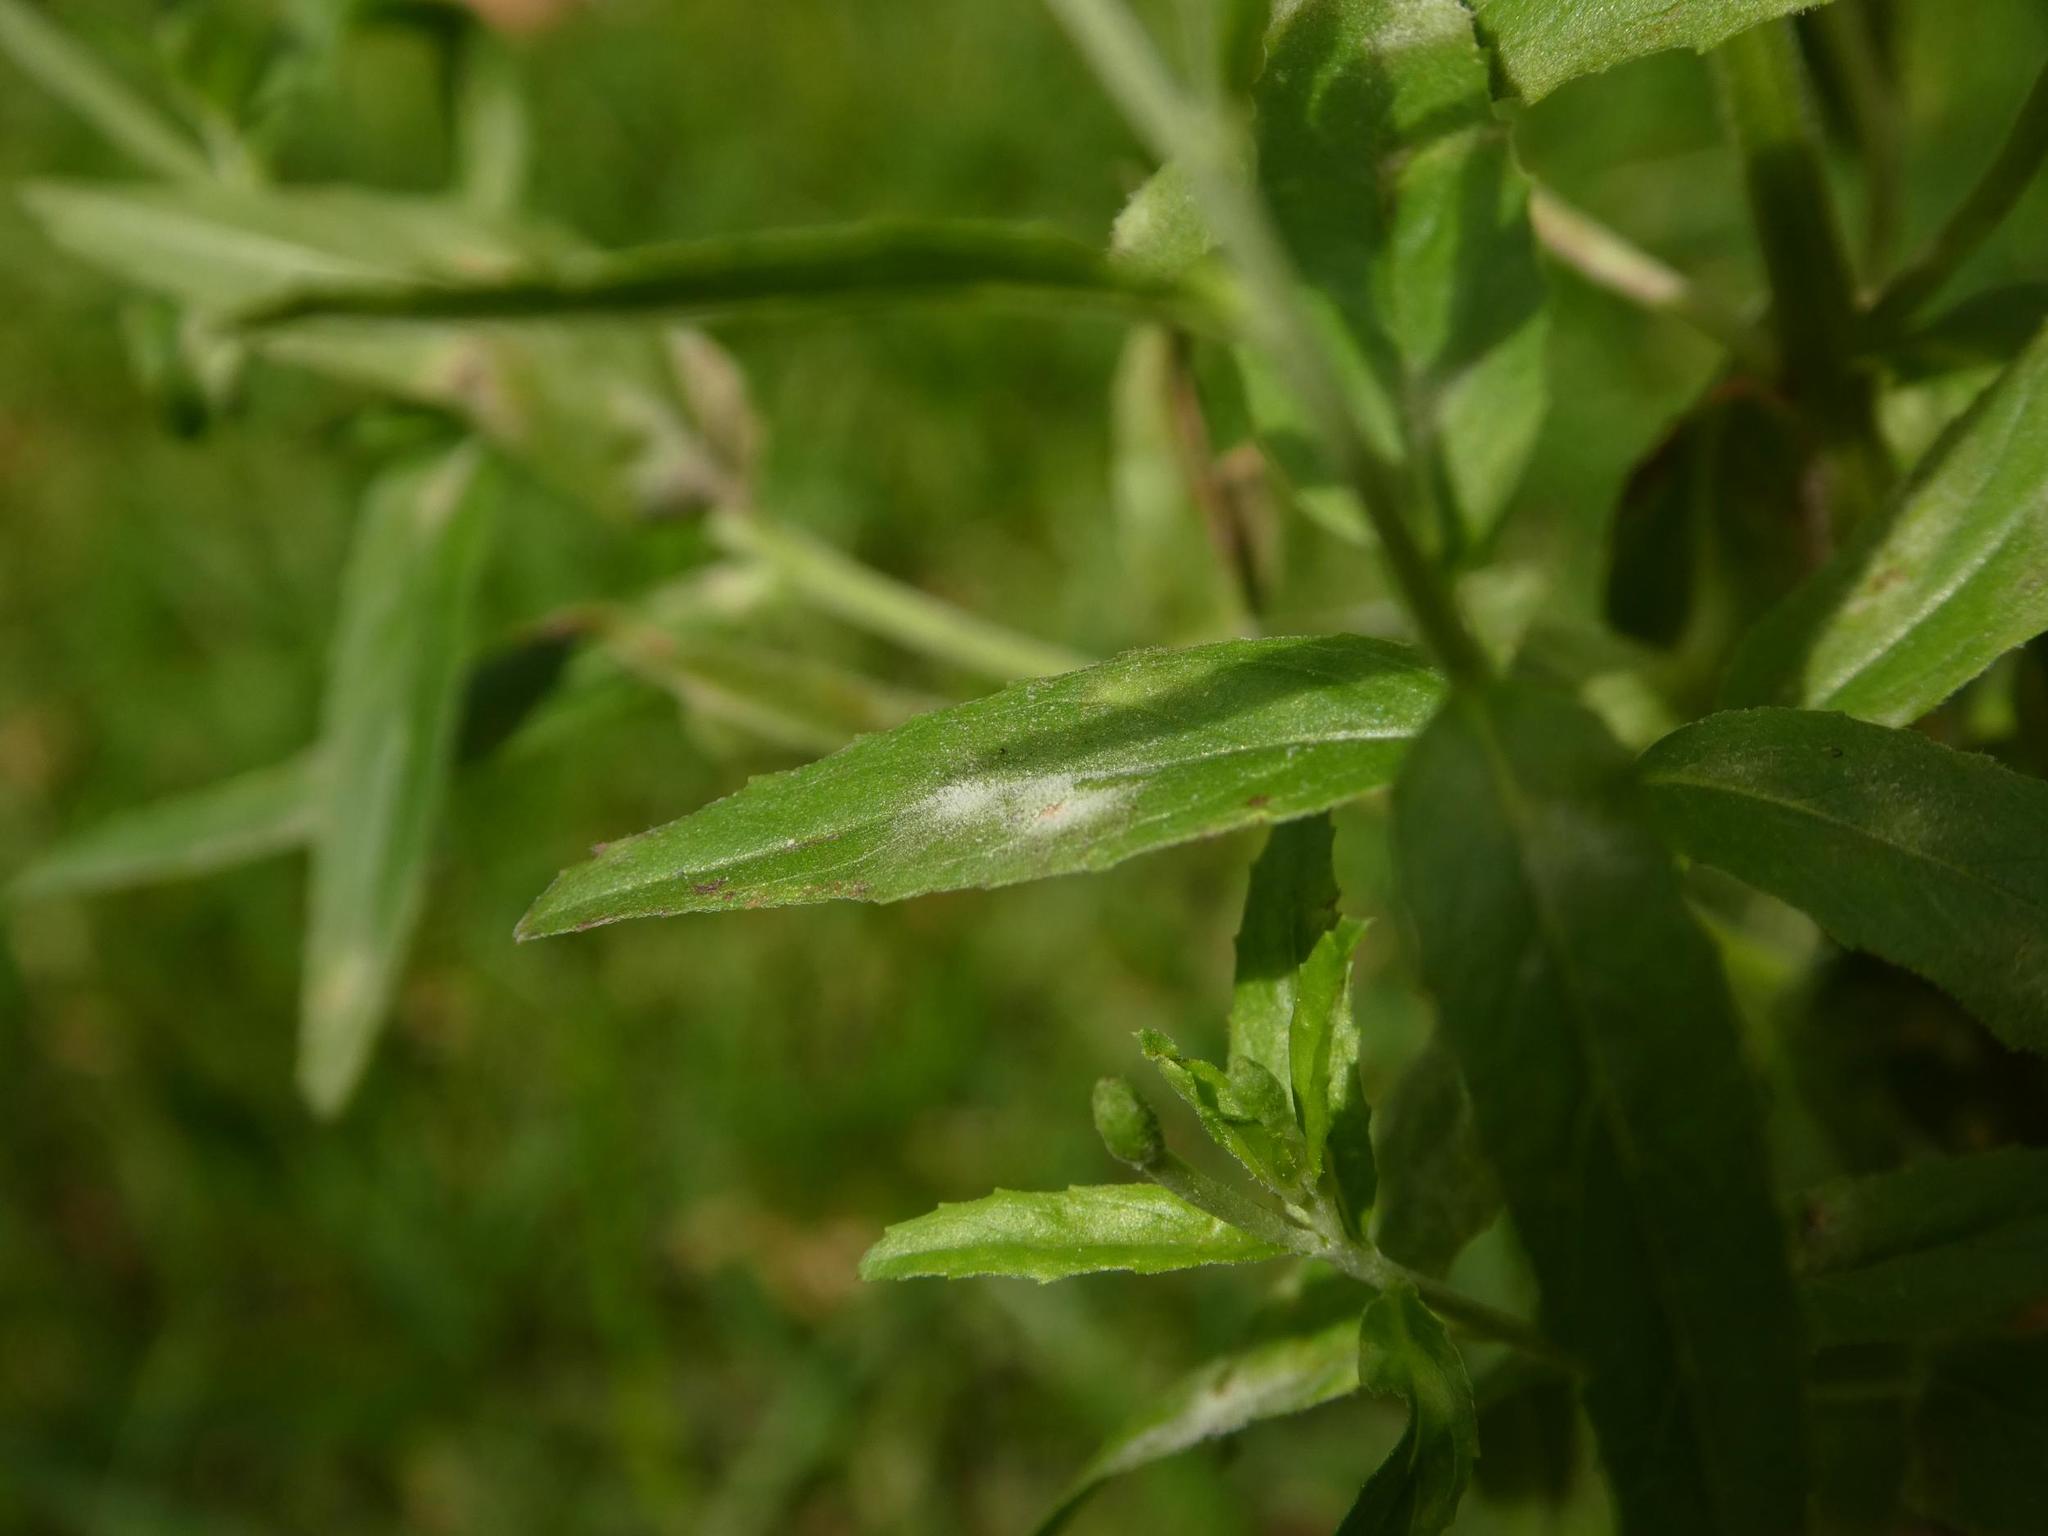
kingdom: Fungi
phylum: Ascomycota
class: Leotiomycetes
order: Helotiales
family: Erysiphaceae
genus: Podosphaera
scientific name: Podosphaera epilobii
